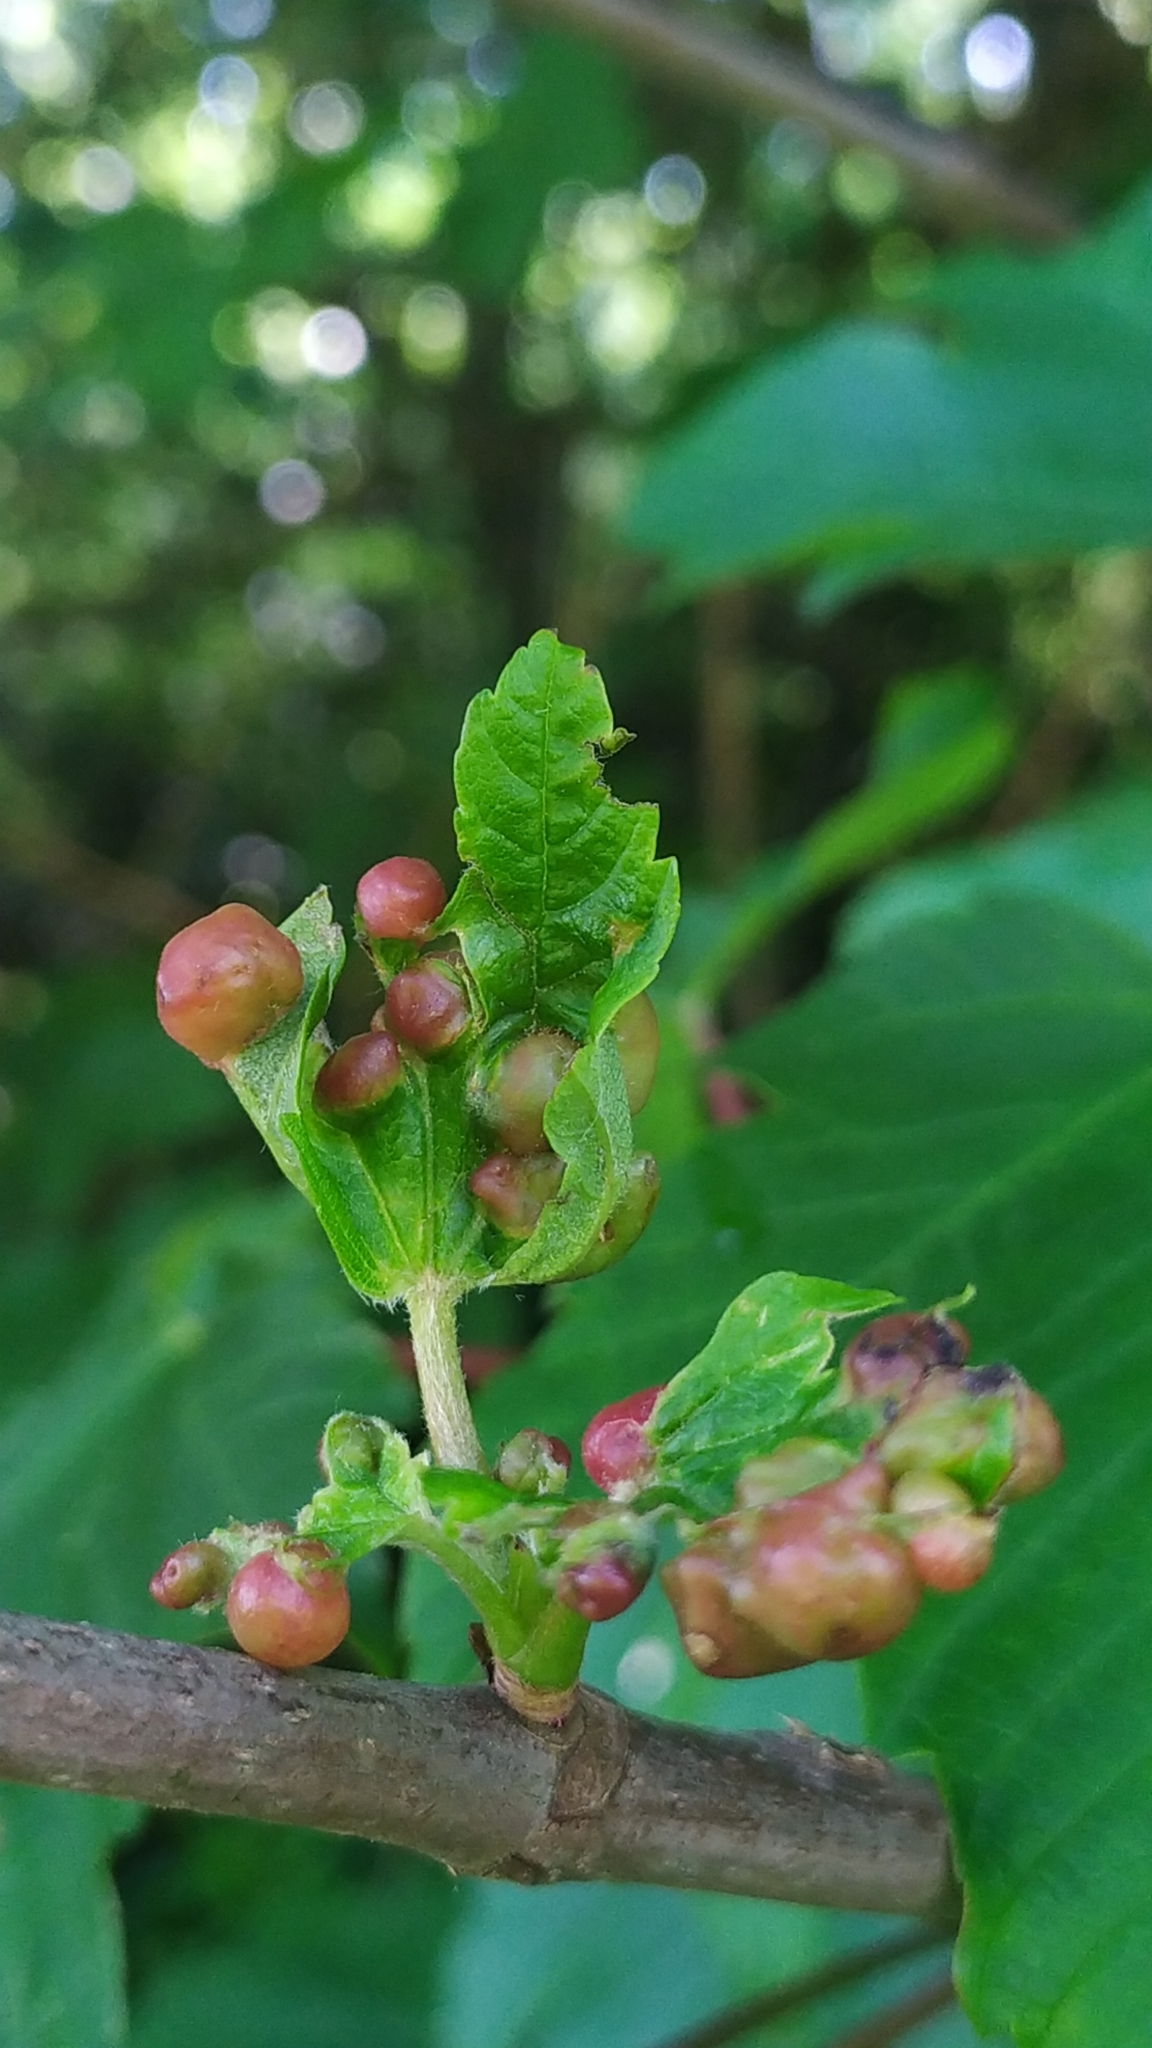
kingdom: Animalia
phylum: Arthropoda
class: Insecta
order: Hymenoptera
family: Cynipidae
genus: Pediaspis
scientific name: Pediaspis aceris
